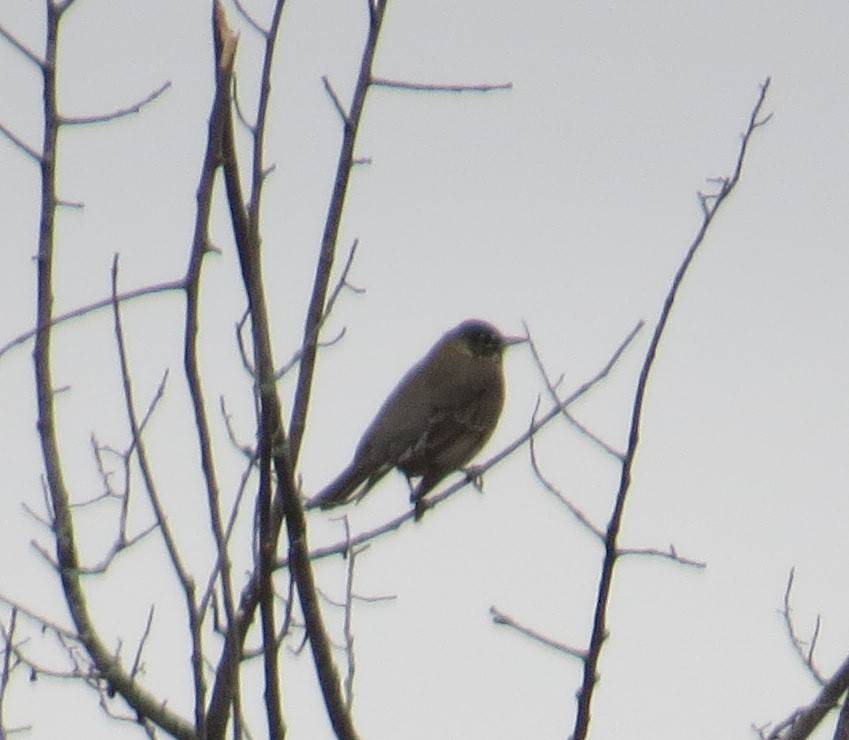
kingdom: Animalia
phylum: Chordata
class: Aves
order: Passeriformes
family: Turdidae
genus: Turdus
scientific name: Turdus migratorius
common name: American robin
